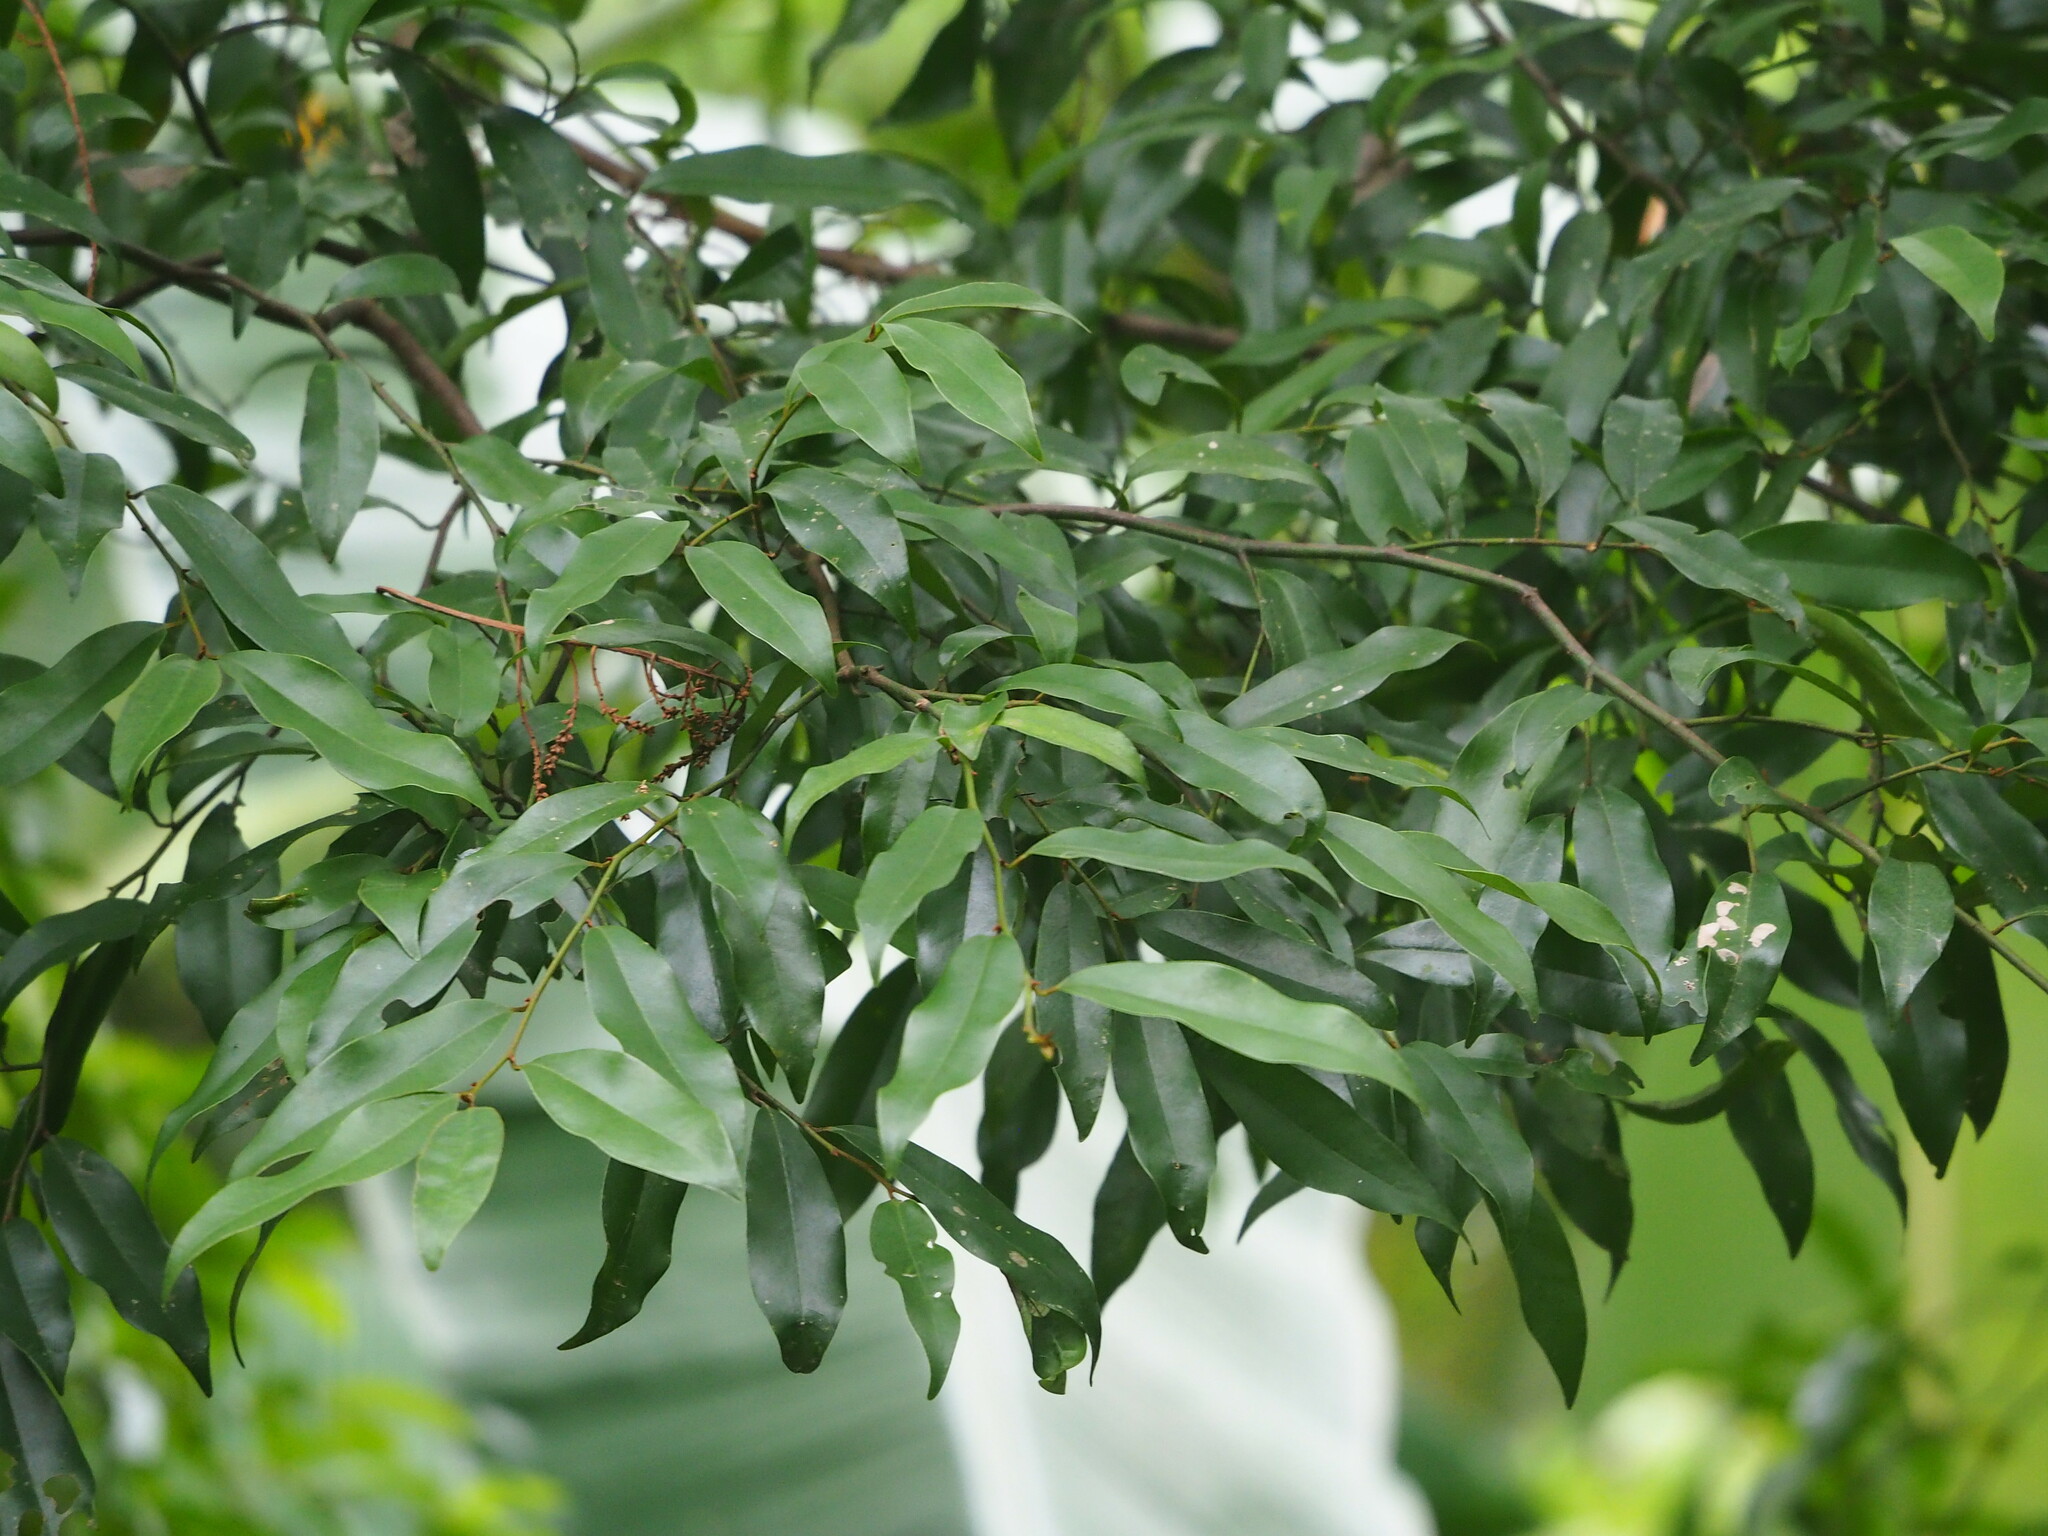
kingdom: Plantae
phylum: Tracheophyta
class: Magnoliopsida
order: Magnoliales
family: Magnoliaceae
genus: Magnolia
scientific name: Magnolia compressa
